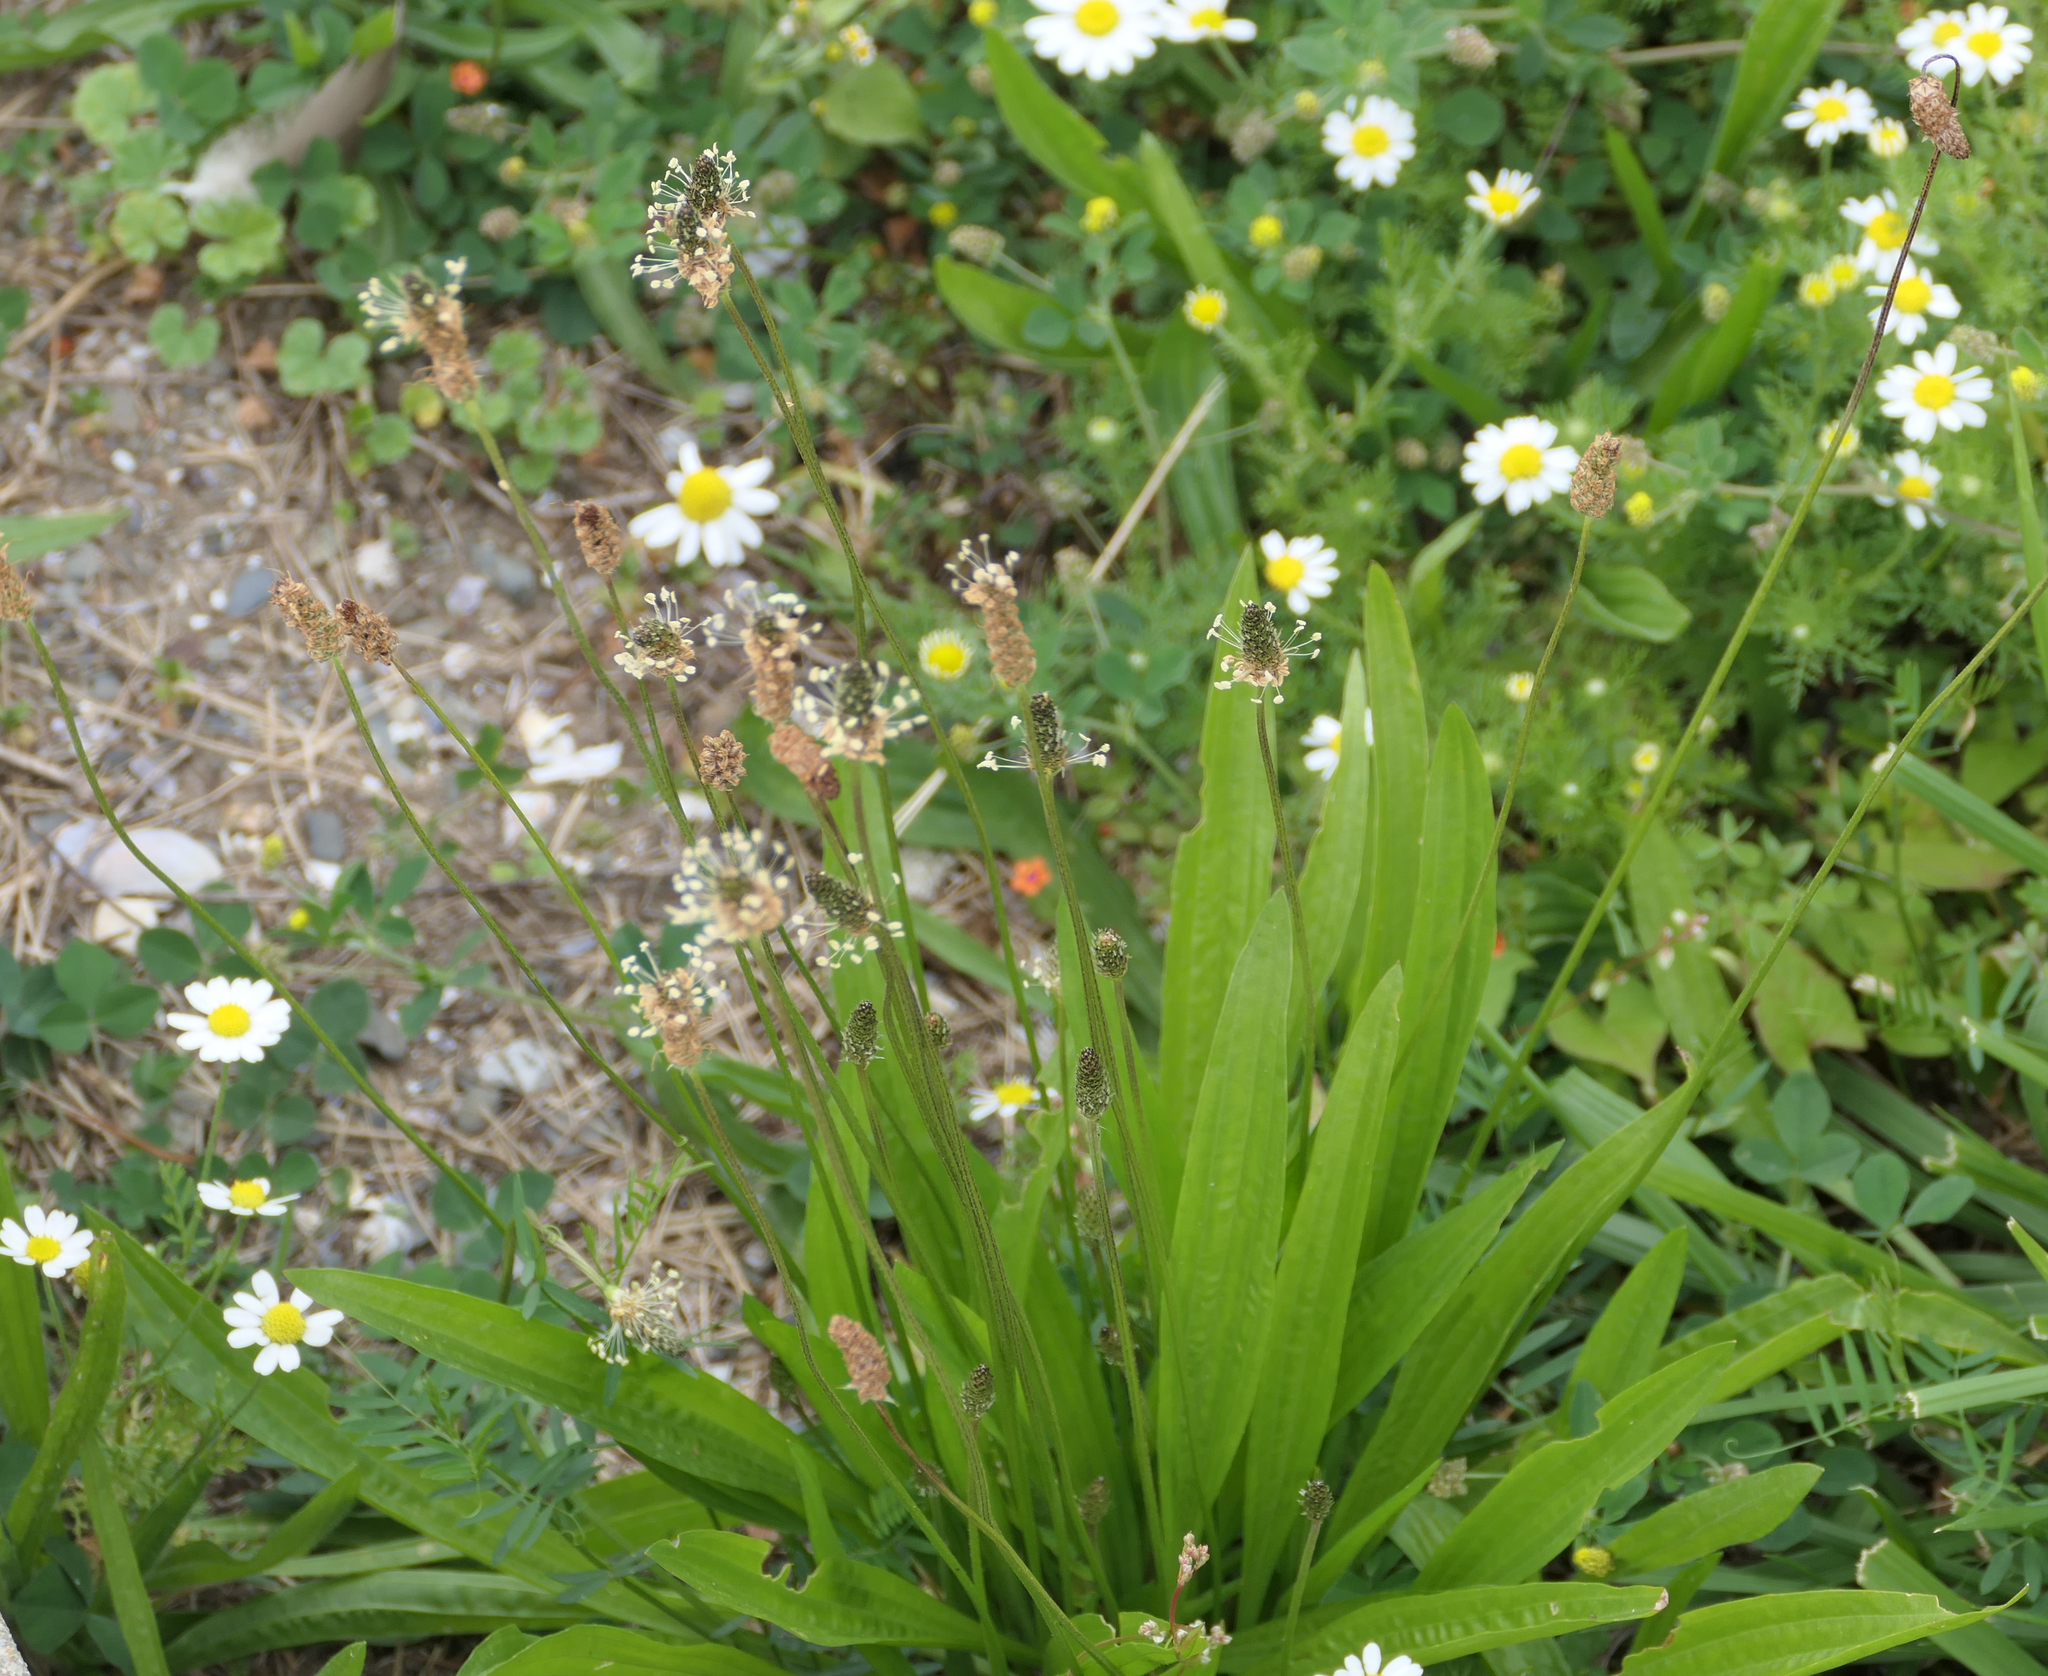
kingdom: Plantae
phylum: Tracheophyta
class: Magnoliopsida
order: Lamiales
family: Plantaginaceae
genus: Plantago
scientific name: Plantago lanceolata
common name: Ribwort plantain
